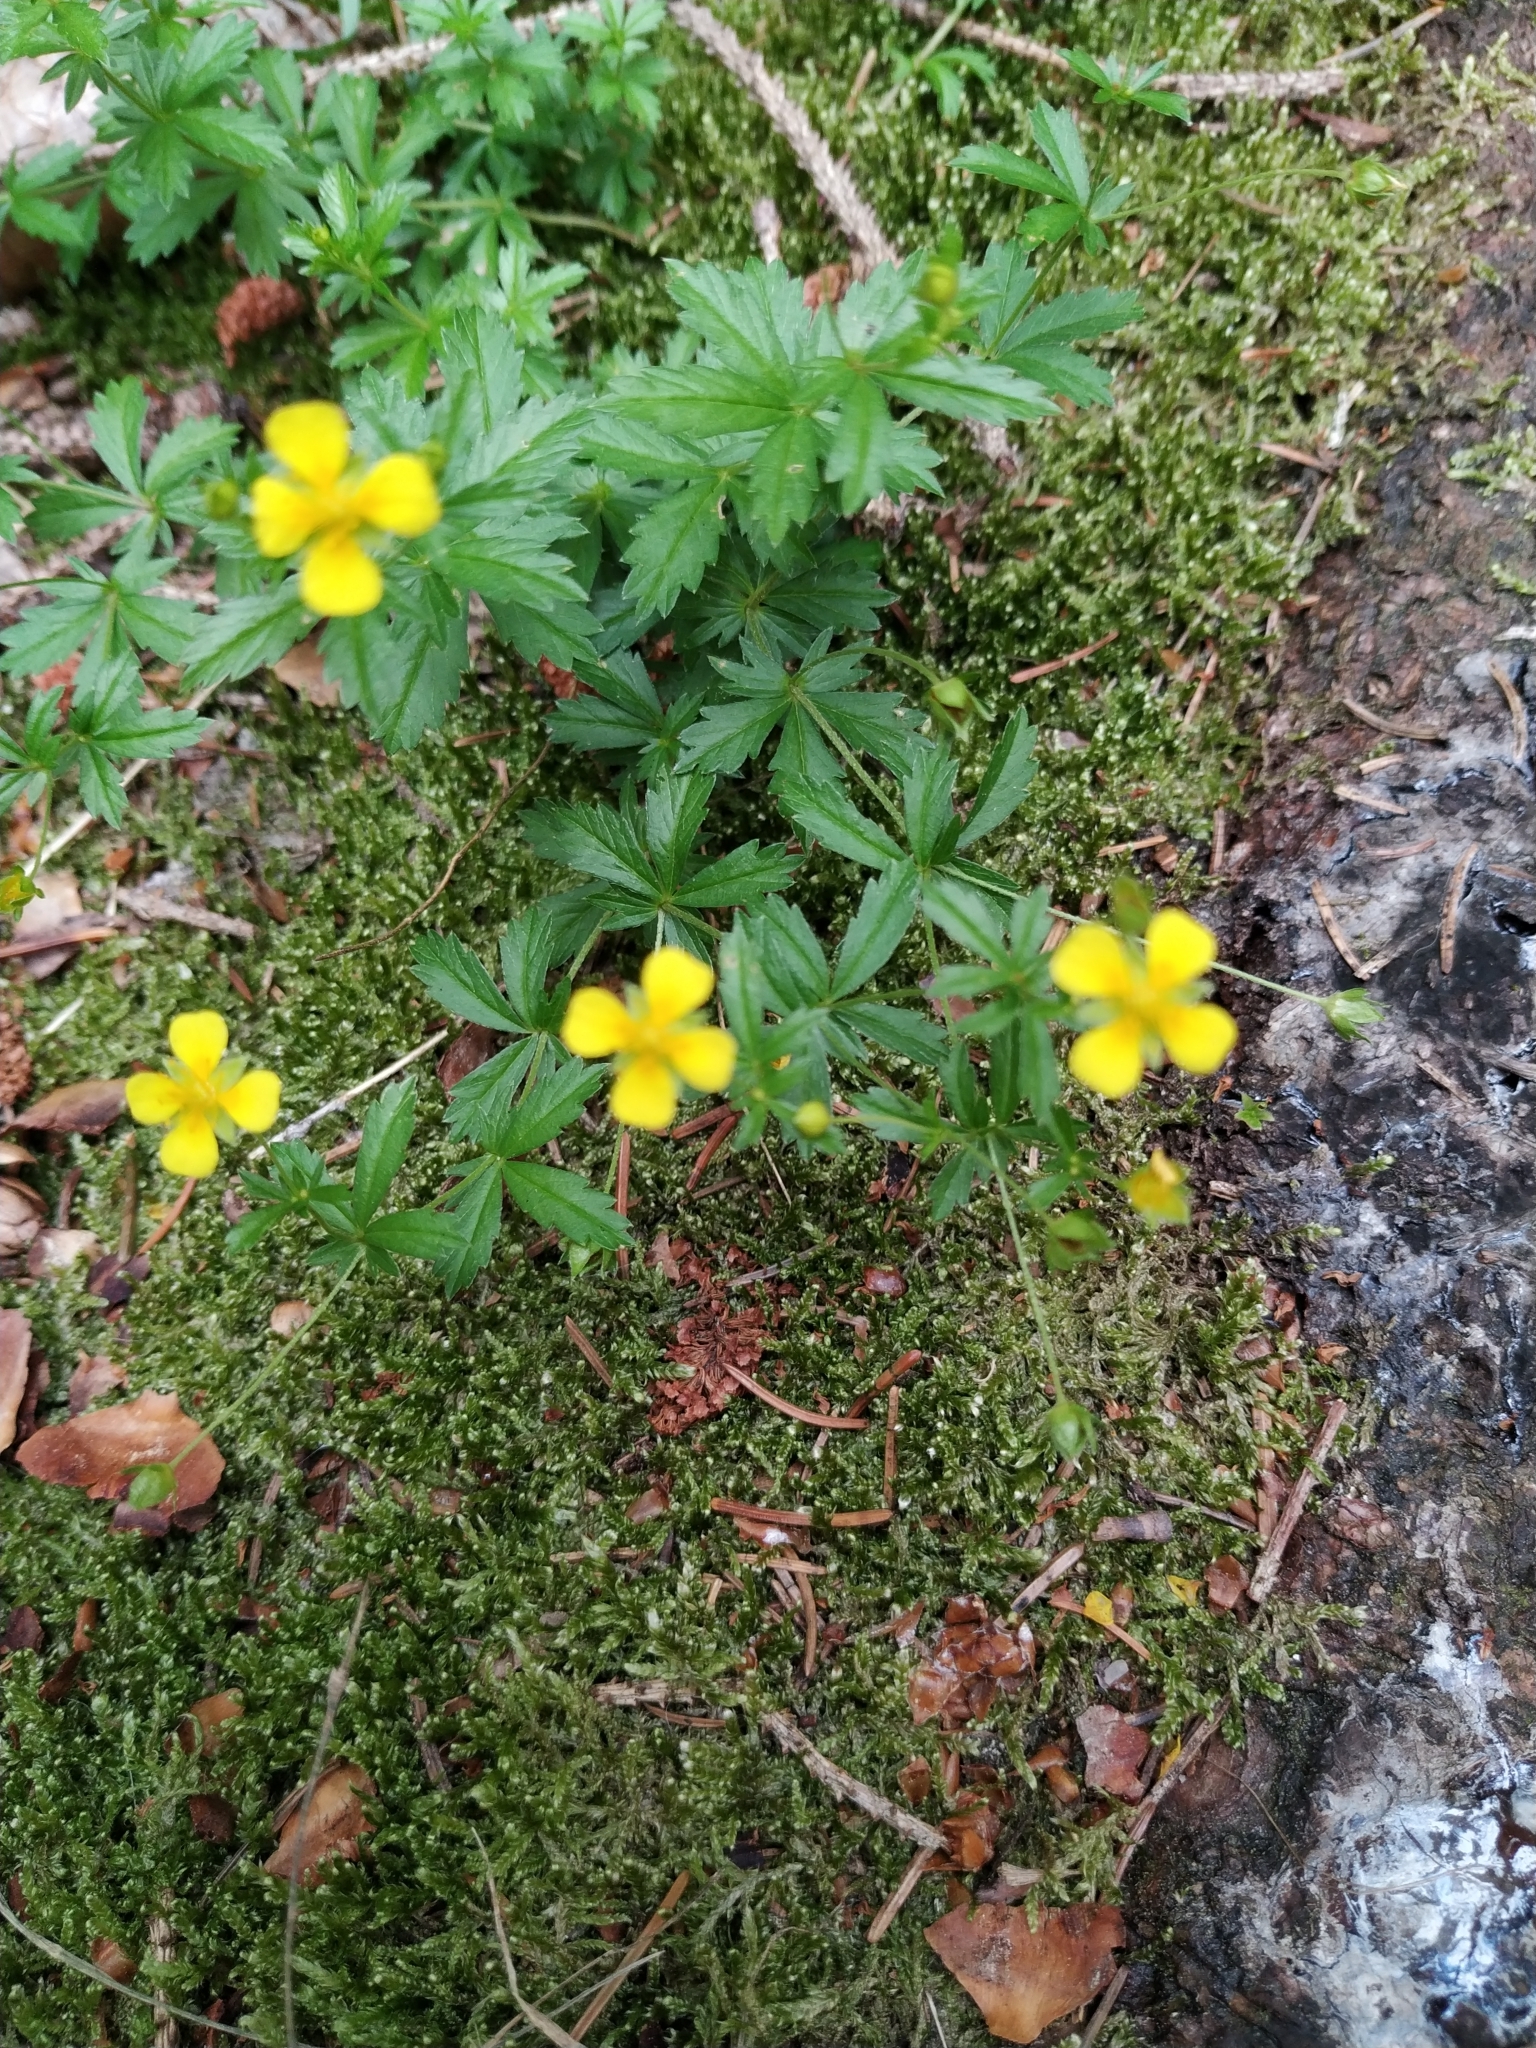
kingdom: Plantae
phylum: Tracheophyta
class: Magnoliopsida
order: Rosales
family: Rosaceae
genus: Potentilla
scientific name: Potentilla erecta
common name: Tormentil
